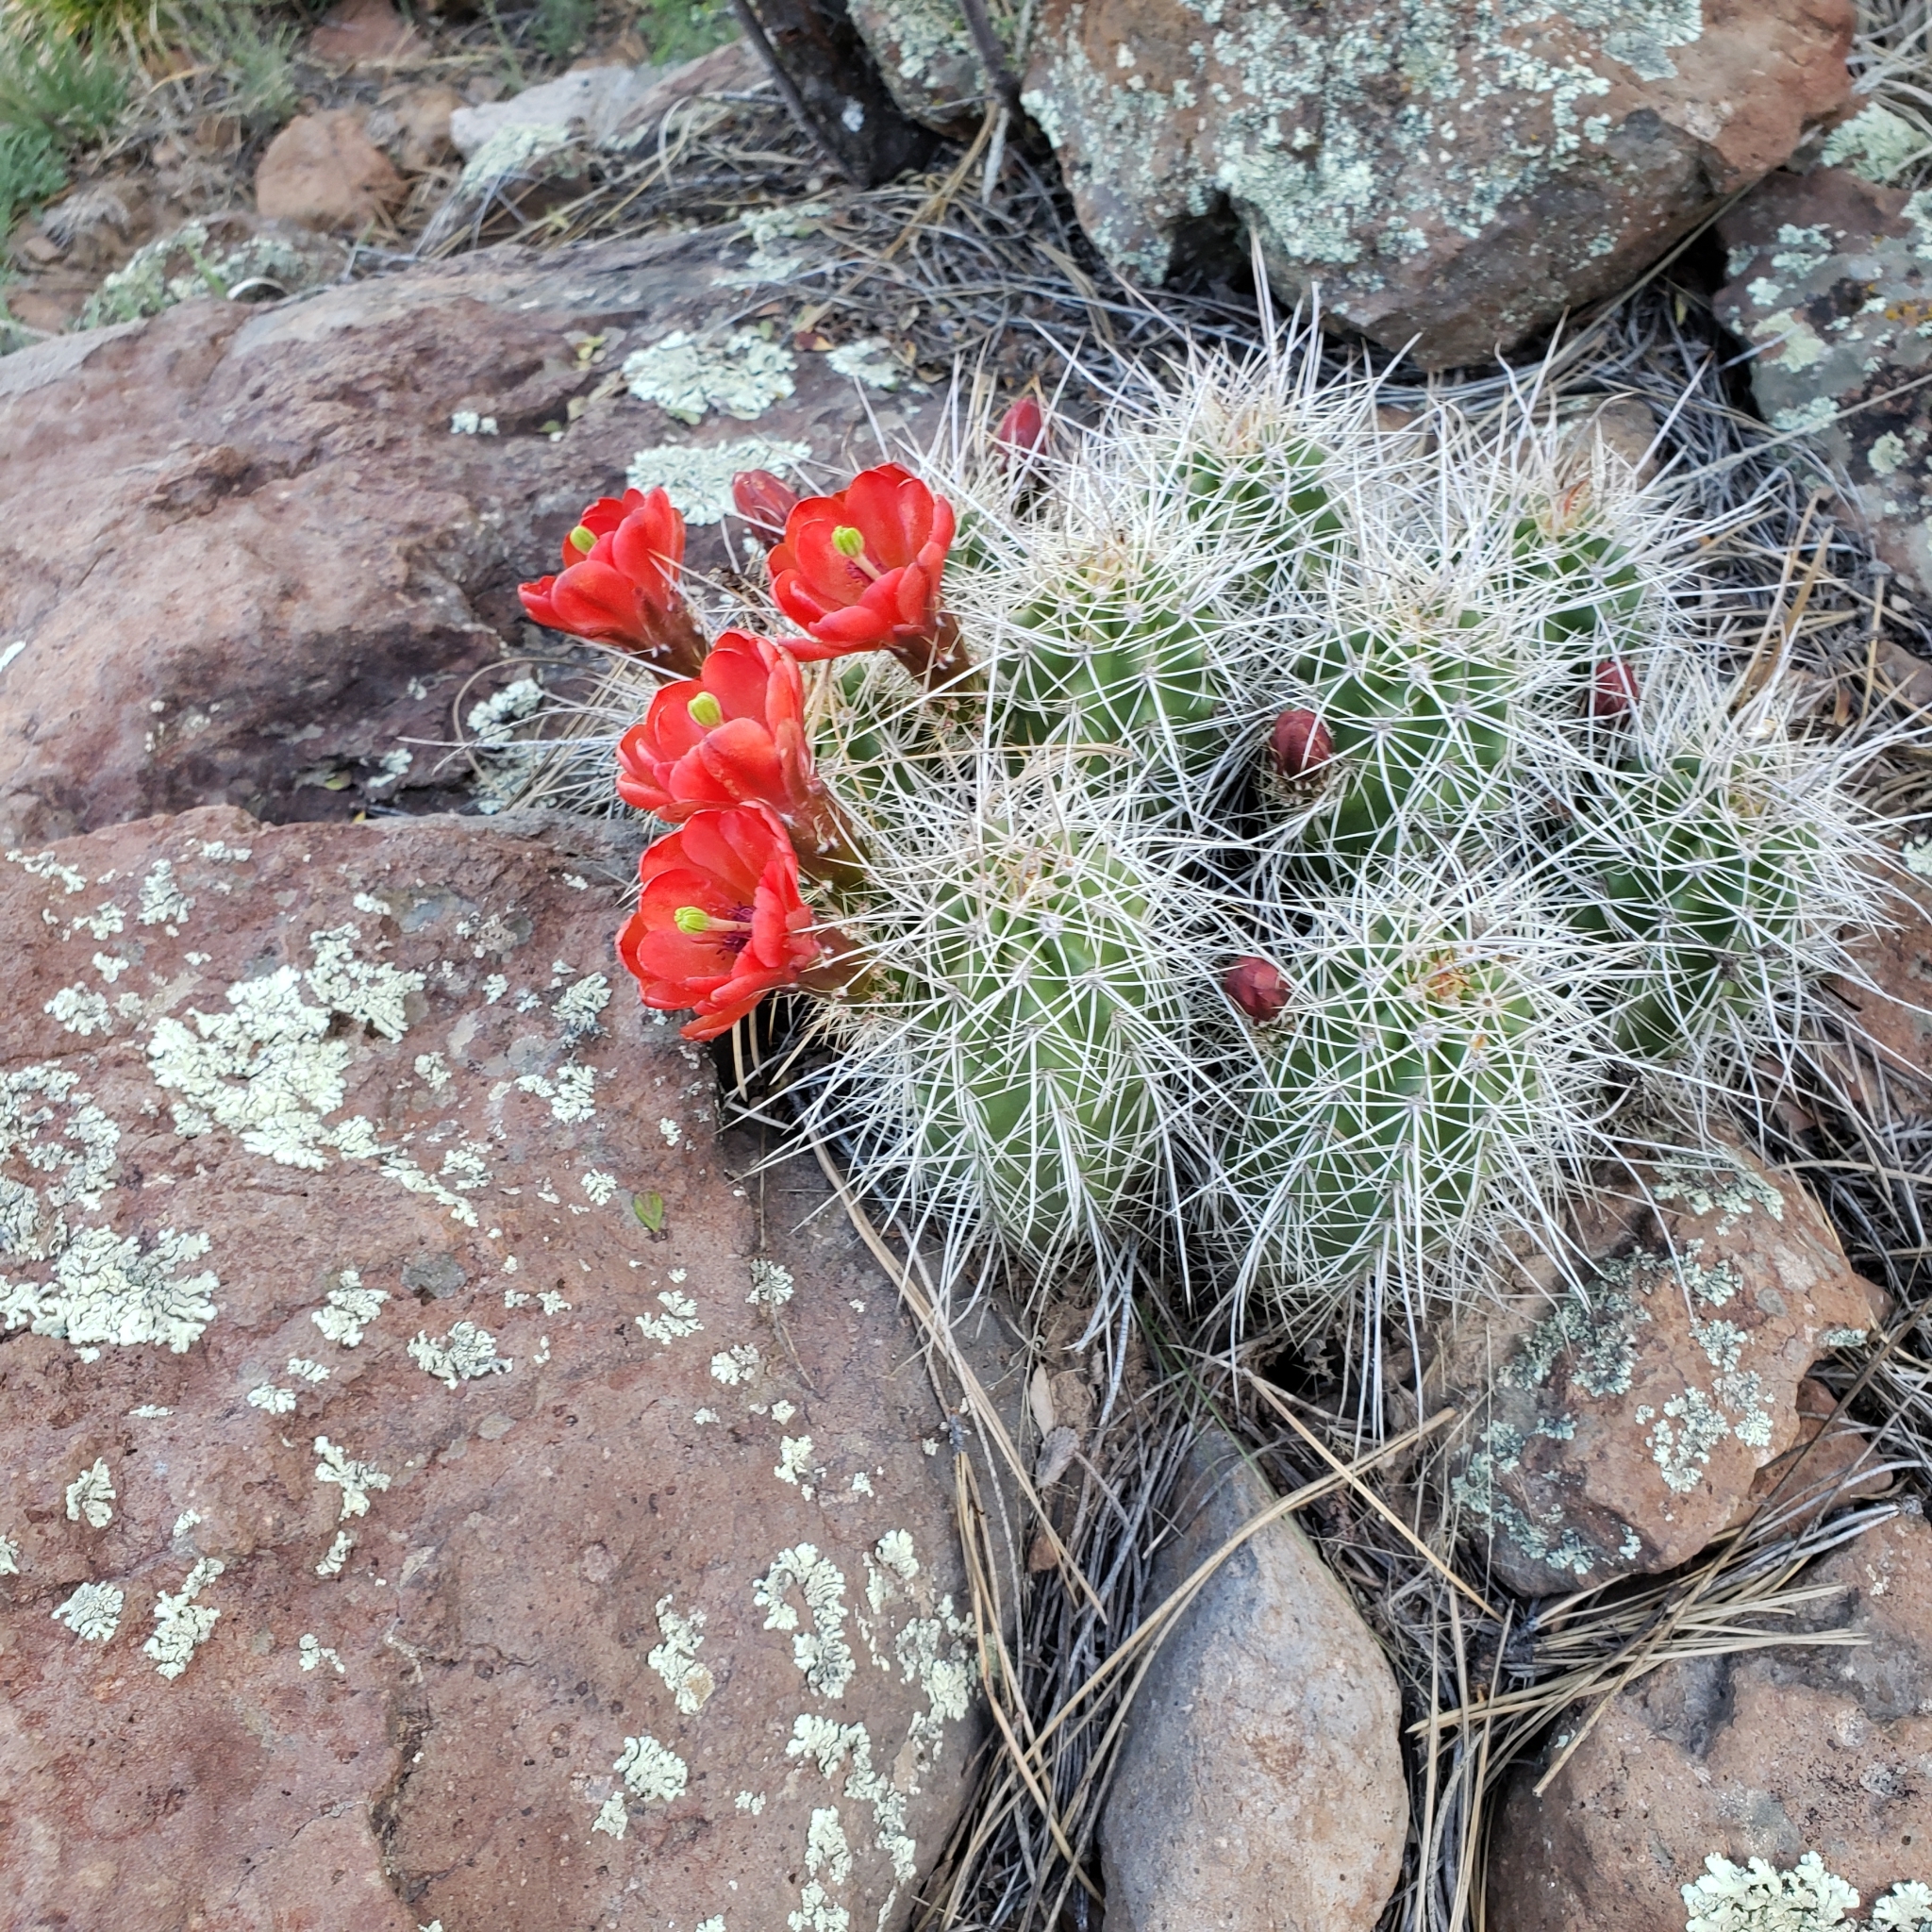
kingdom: Plantae
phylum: Tracheophyta
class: Magnoliopsida
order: Caryophyllales
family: Cactaceae
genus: Echinocereus
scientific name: Echinocereus bakeri
